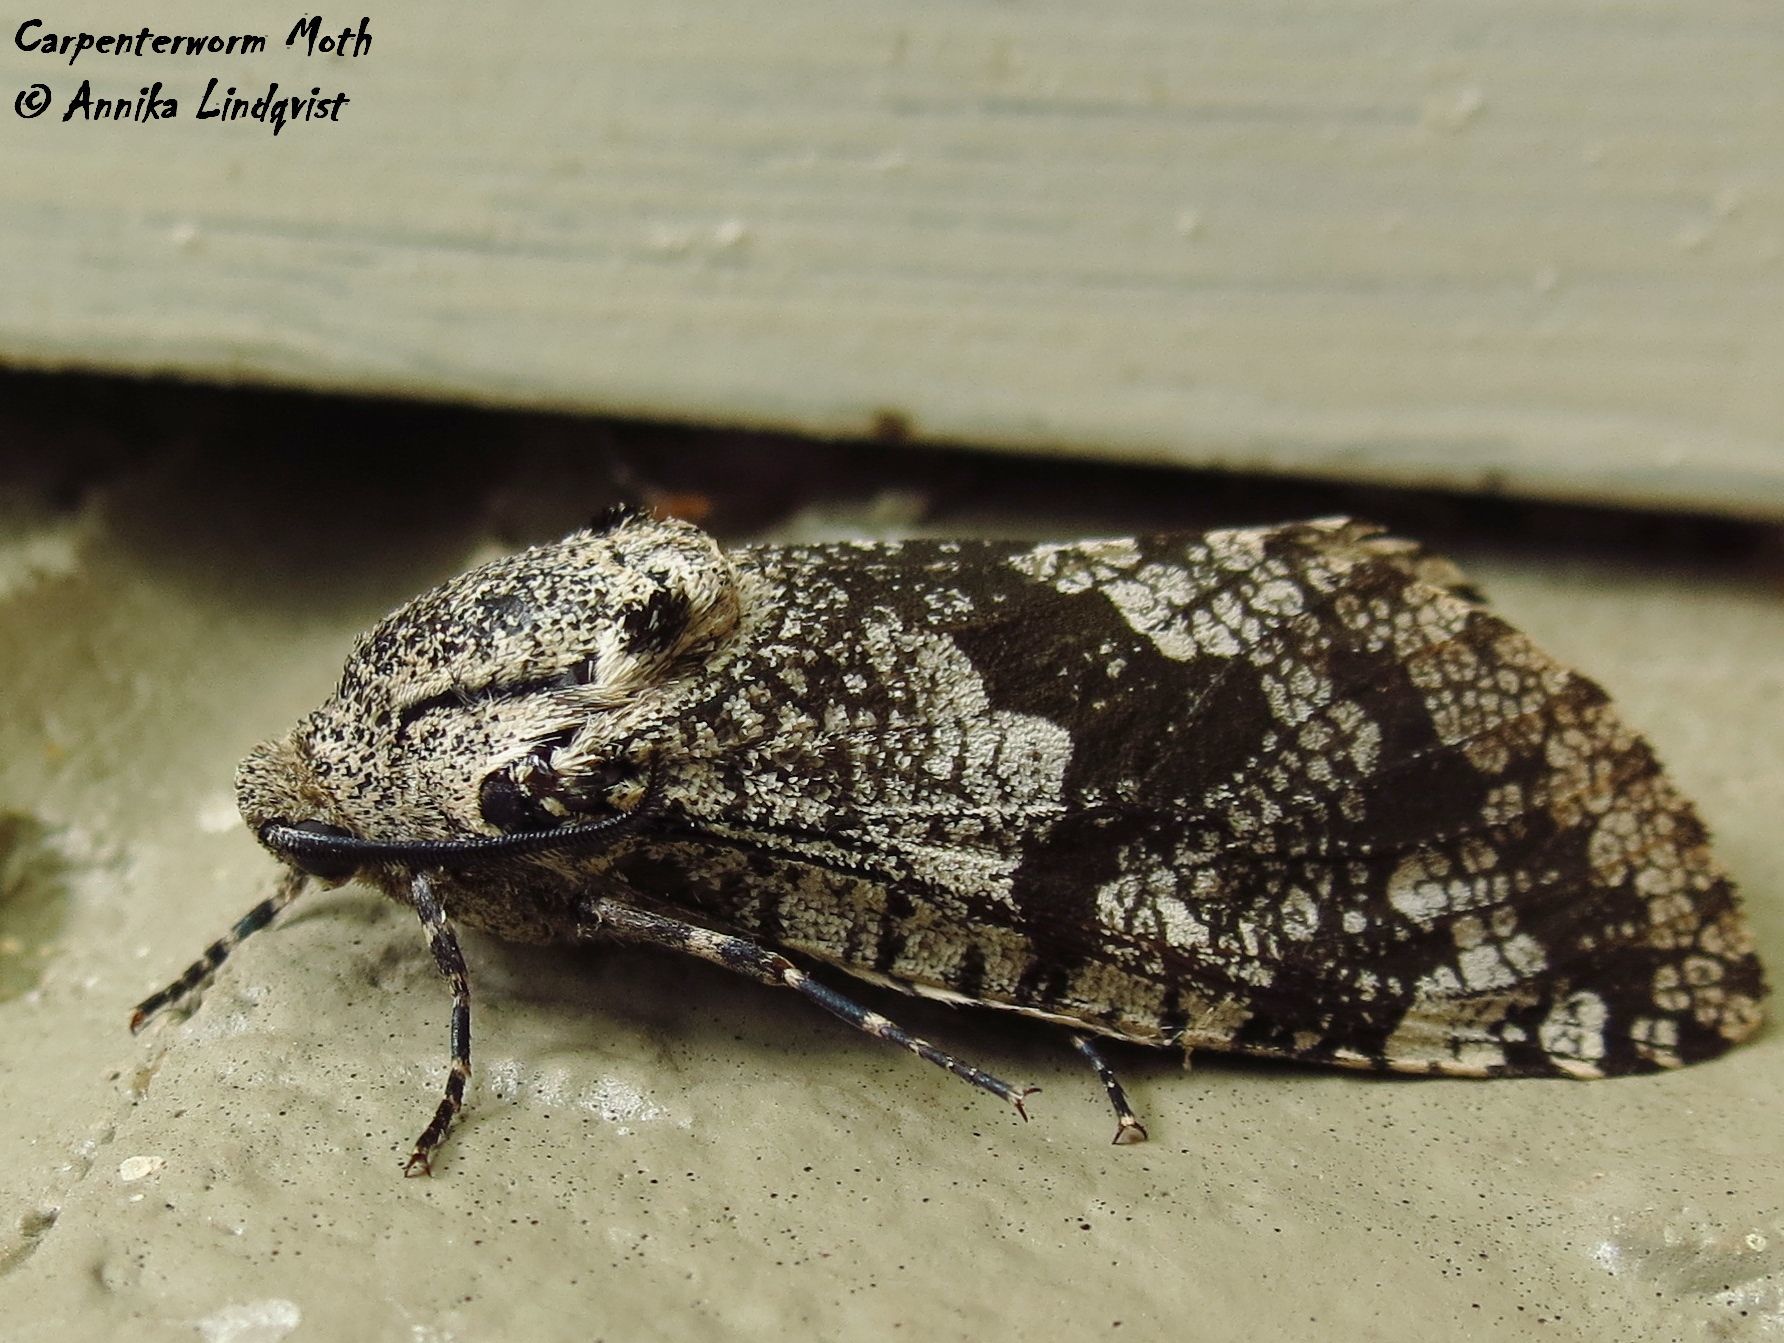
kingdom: Animalia
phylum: Arthropoda
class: Insecta
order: Lepidoptera
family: Cossidae
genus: Prionoxystus
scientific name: Prionoxystus robiniae
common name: Carpenterworm
